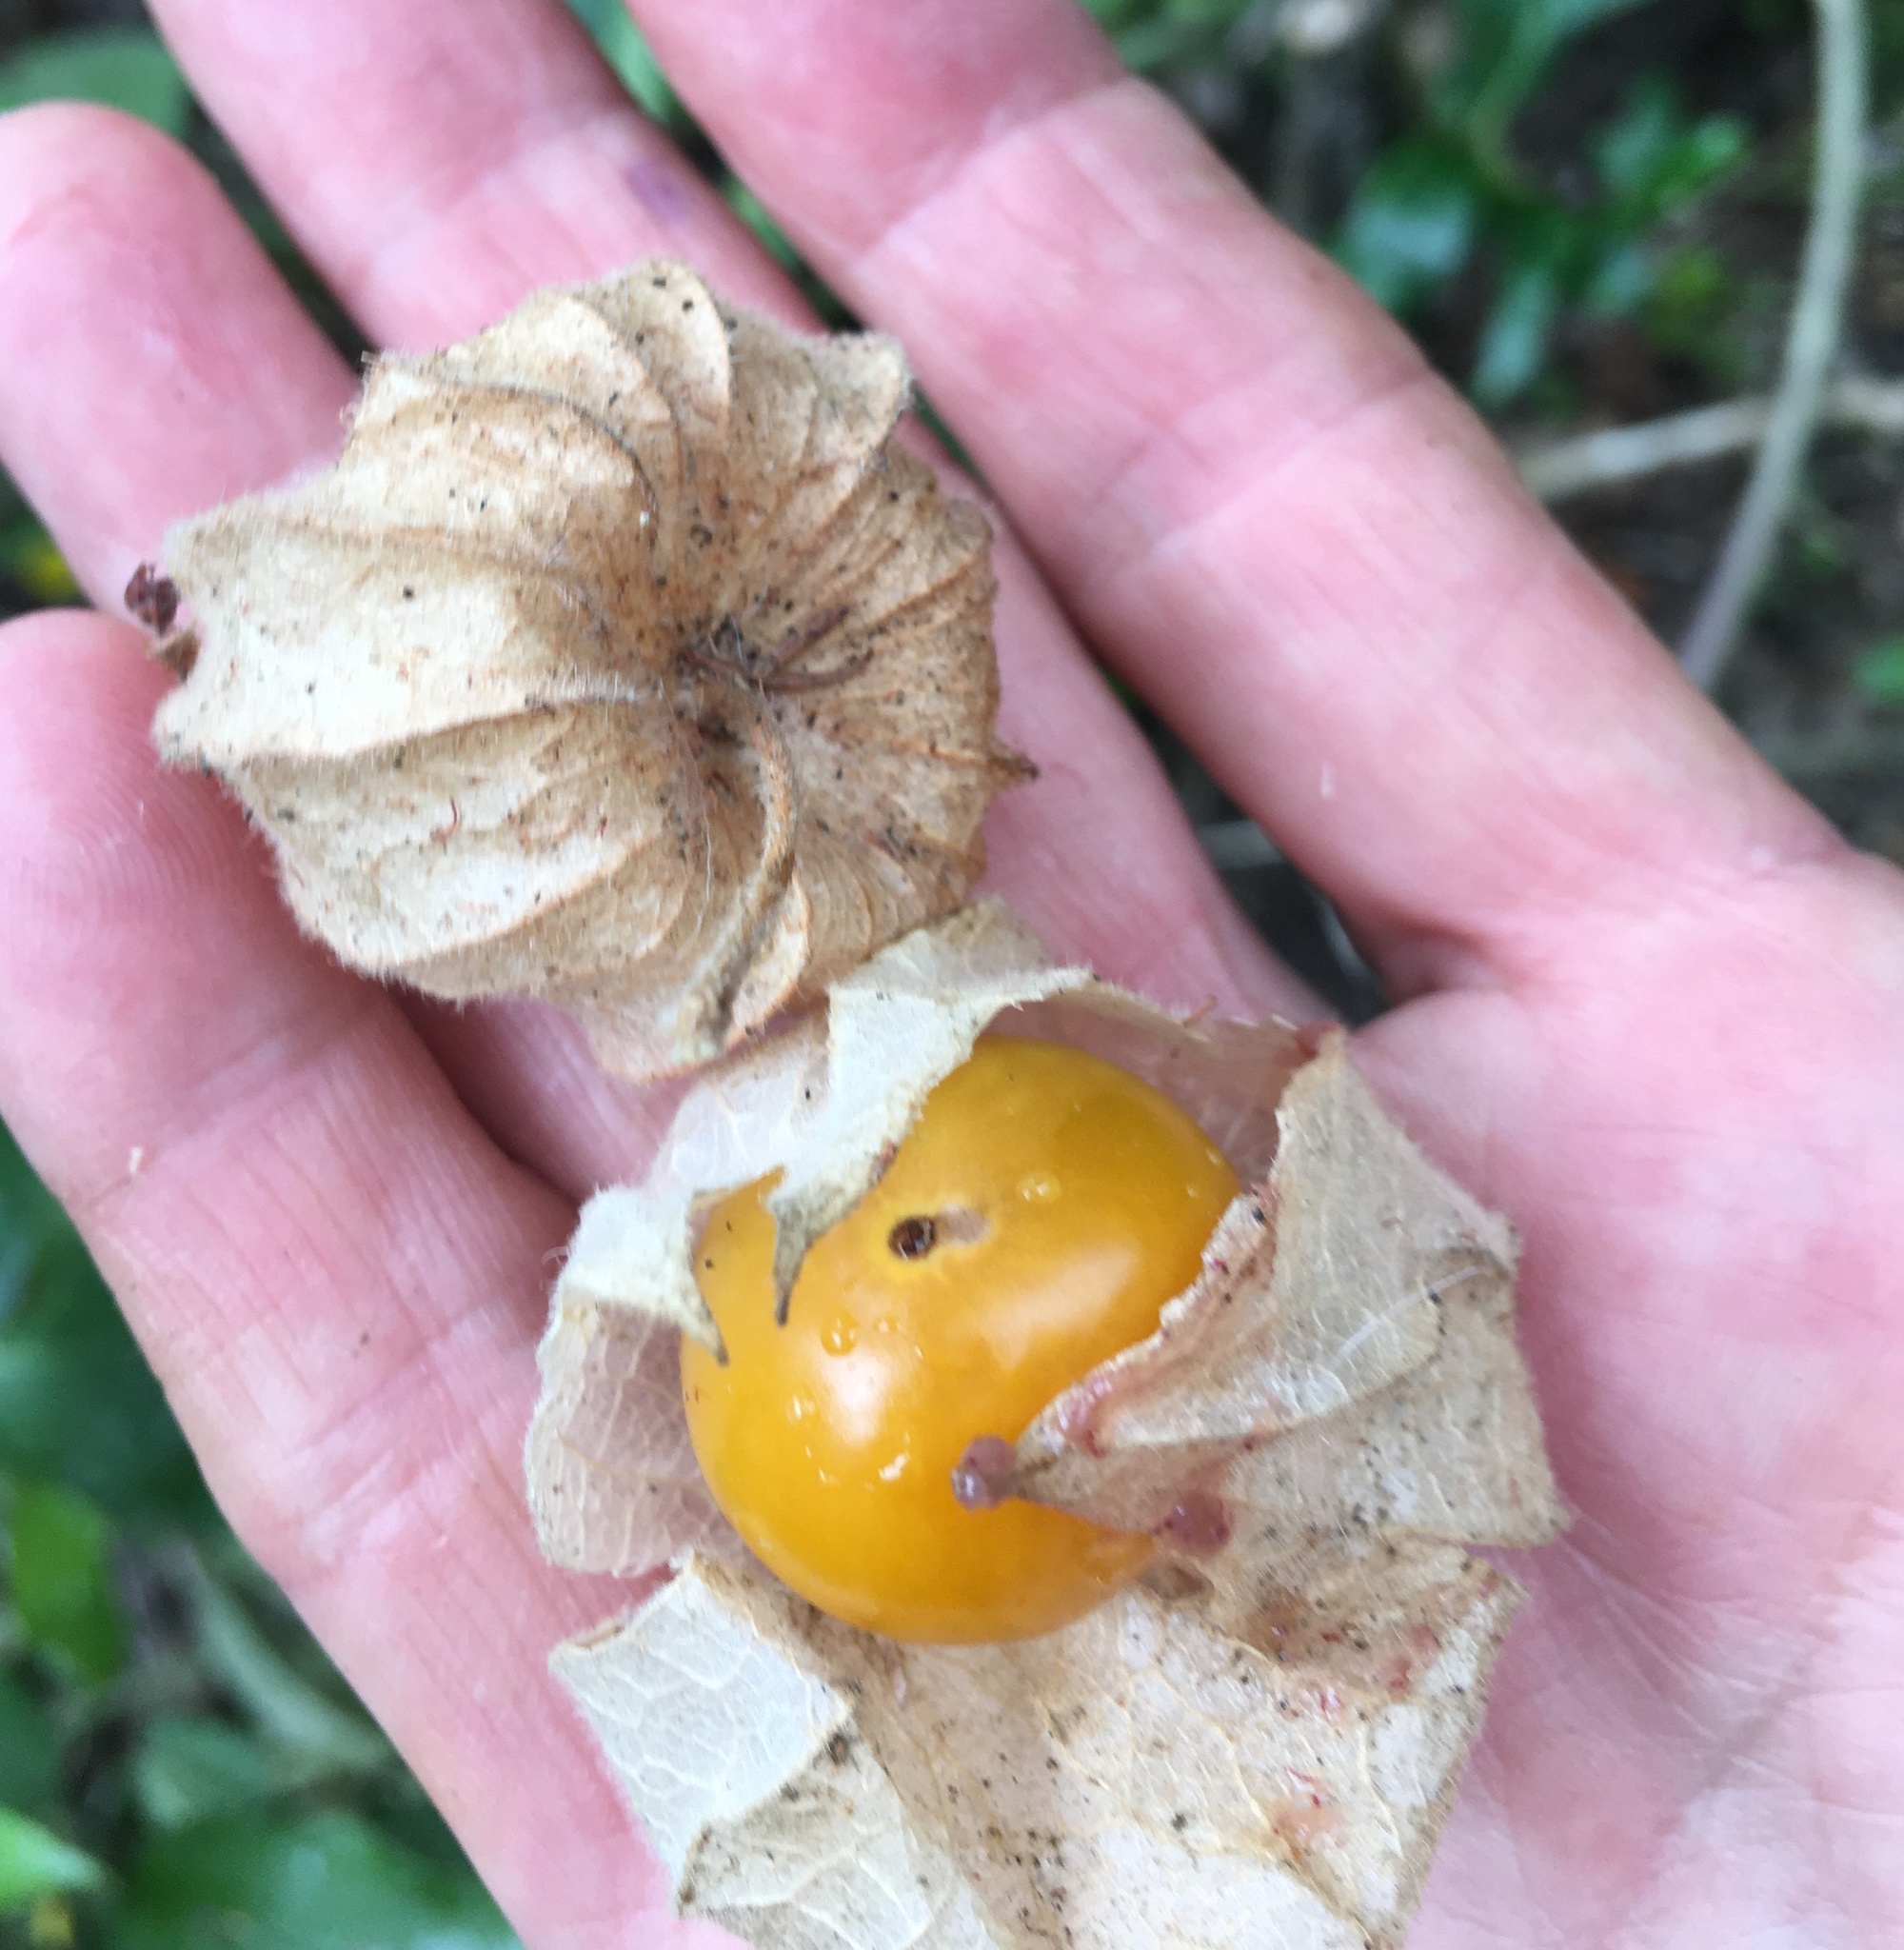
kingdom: Plantae
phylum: Tracheophyta
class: Magnoliopsida
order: Solanales
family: Solanaceae
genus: Physalis
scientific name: Physalis peruviana
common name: Cape-gooseberry
